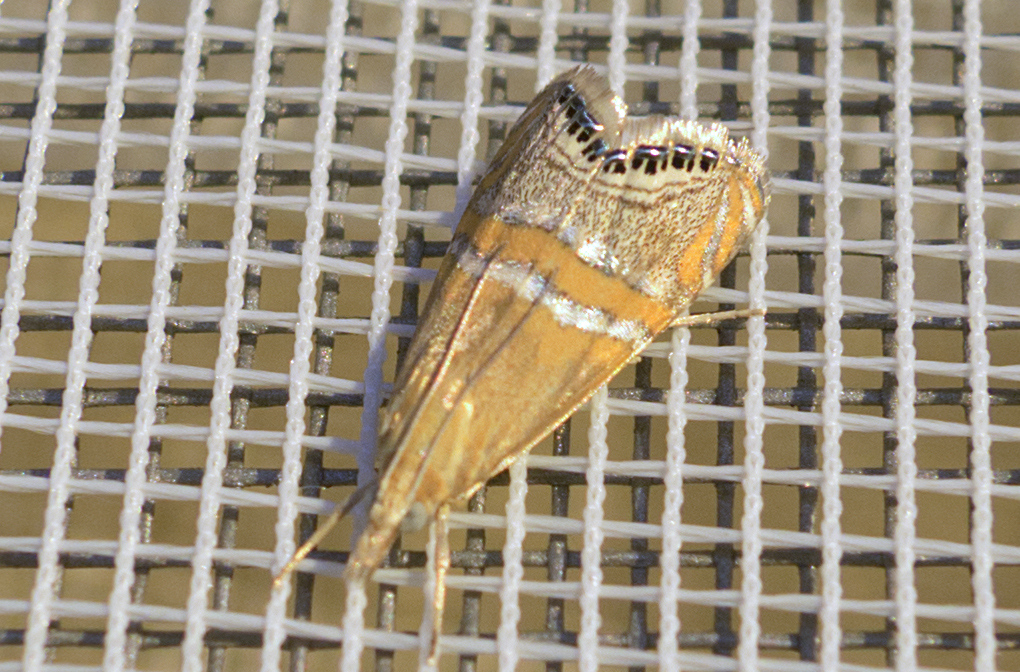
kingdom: Animalia
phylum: Arthropoda
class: Insecta
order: Lepidoptera
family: Crambidae
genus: Euchromius
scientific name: Euchromius bella
